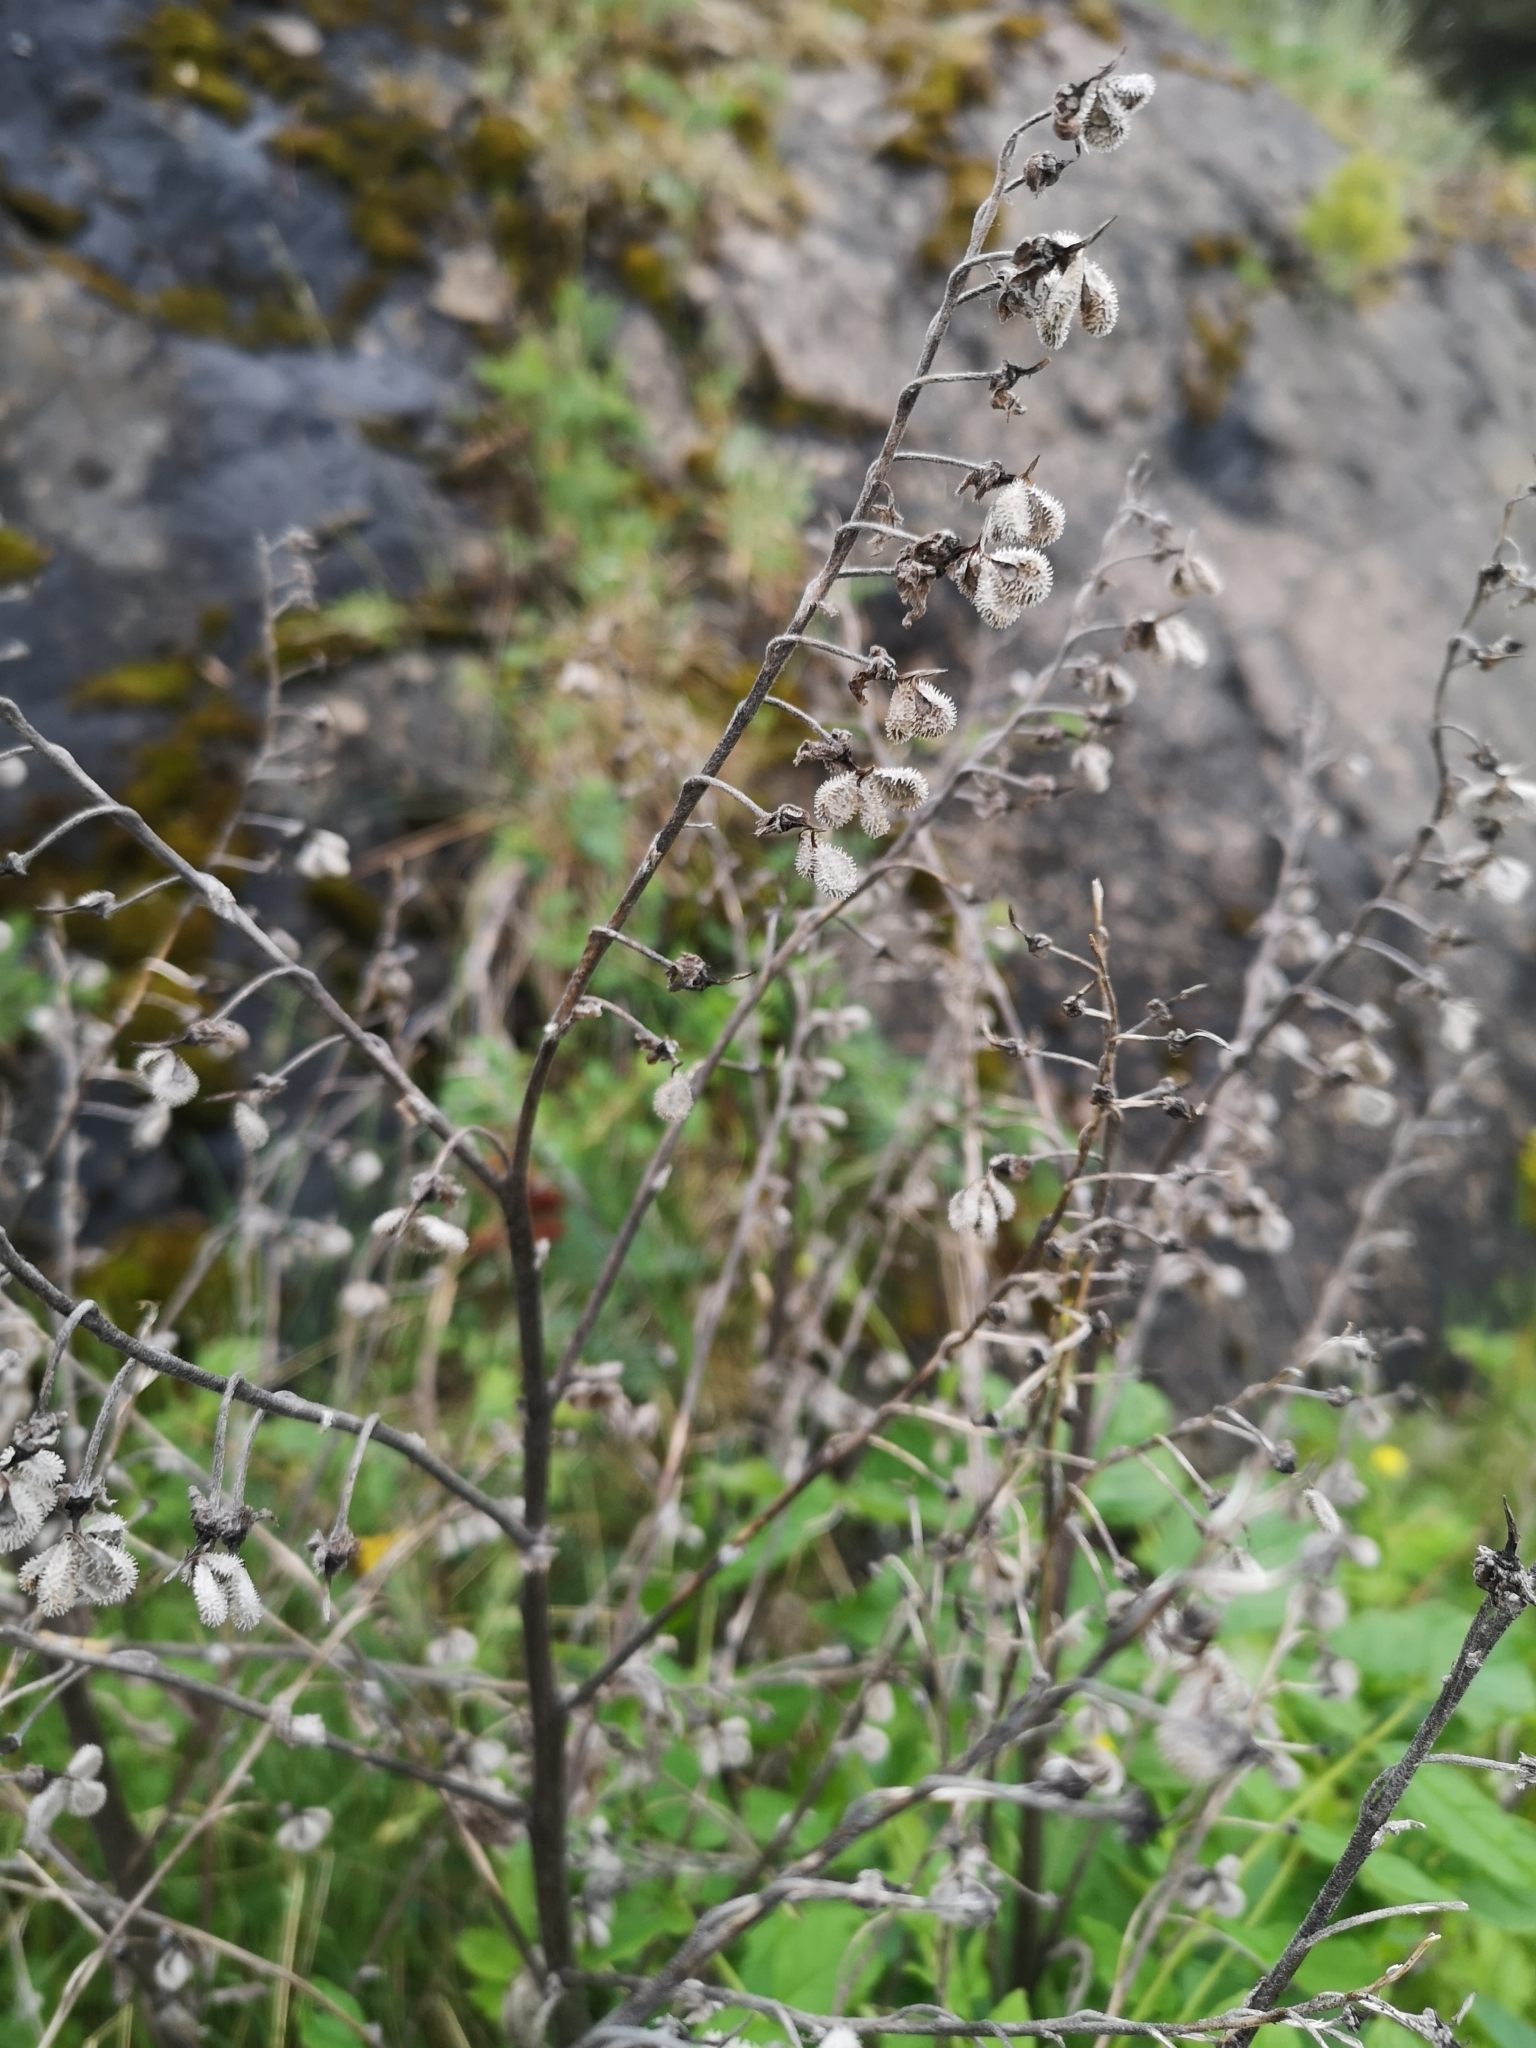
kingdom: Plantae
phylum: Tracheophyta
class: Magnoliopsida
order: Boraginales
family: Boraginaceae
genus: Cynoglossum
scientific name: Cynoglossum officinale
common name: Hound's-tongue
